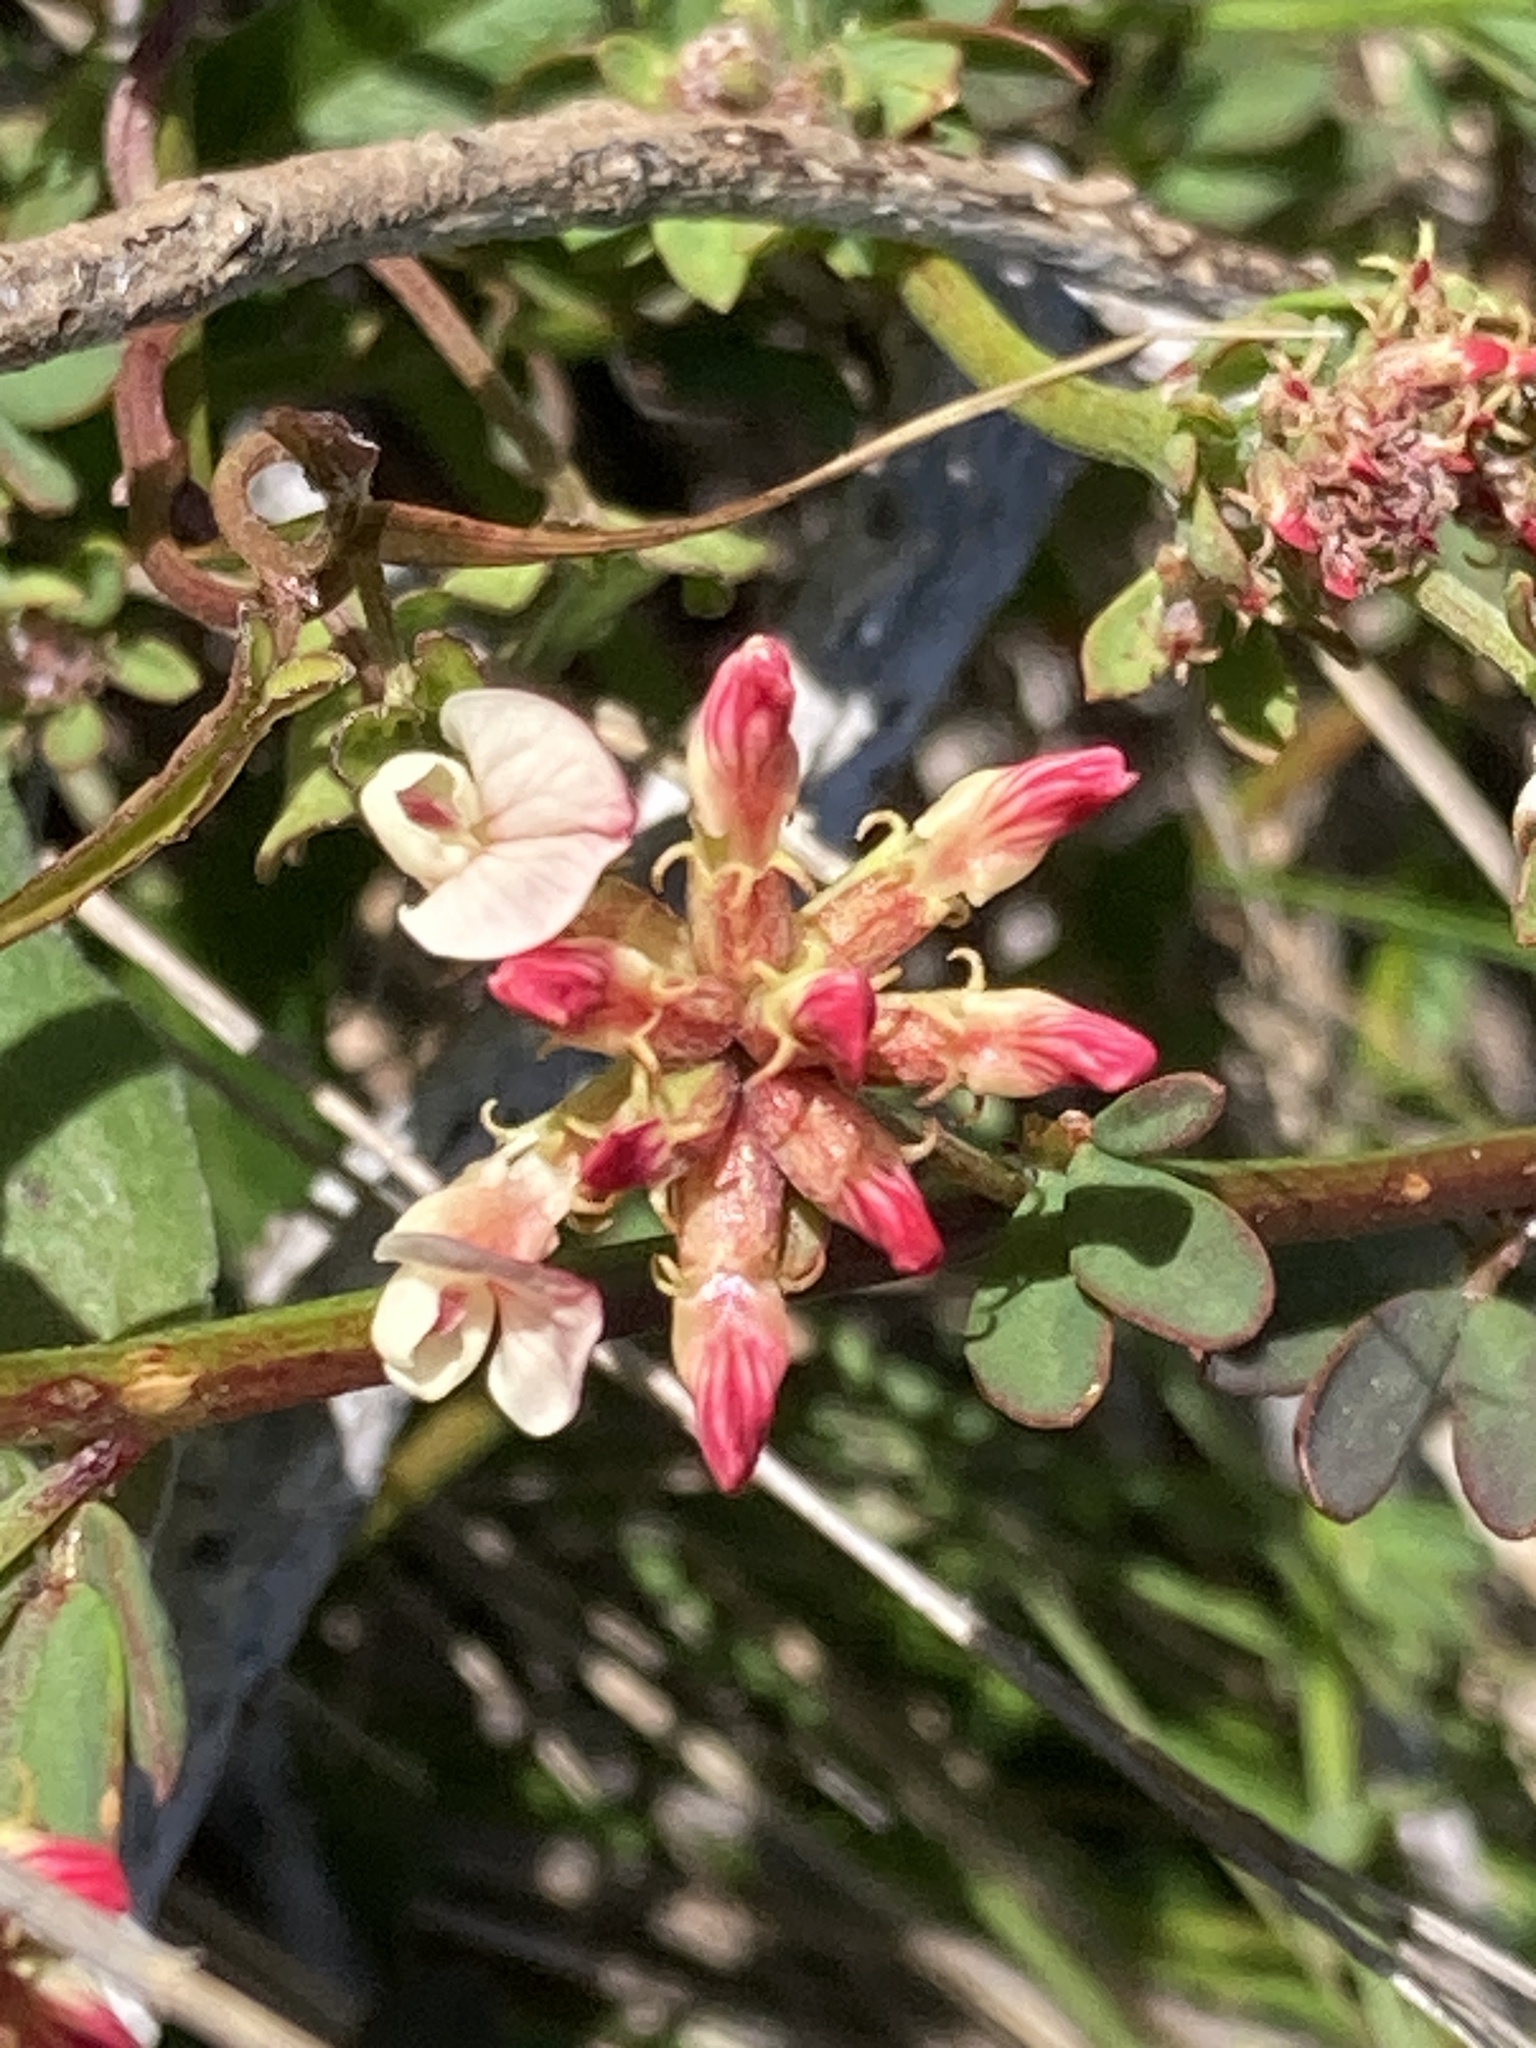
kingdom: Plantae
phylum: Tracheophyta
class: Magnoliopsida
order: Fabales
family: Fabaceae
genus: Acmispon
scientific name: Acmispon cytisoides
